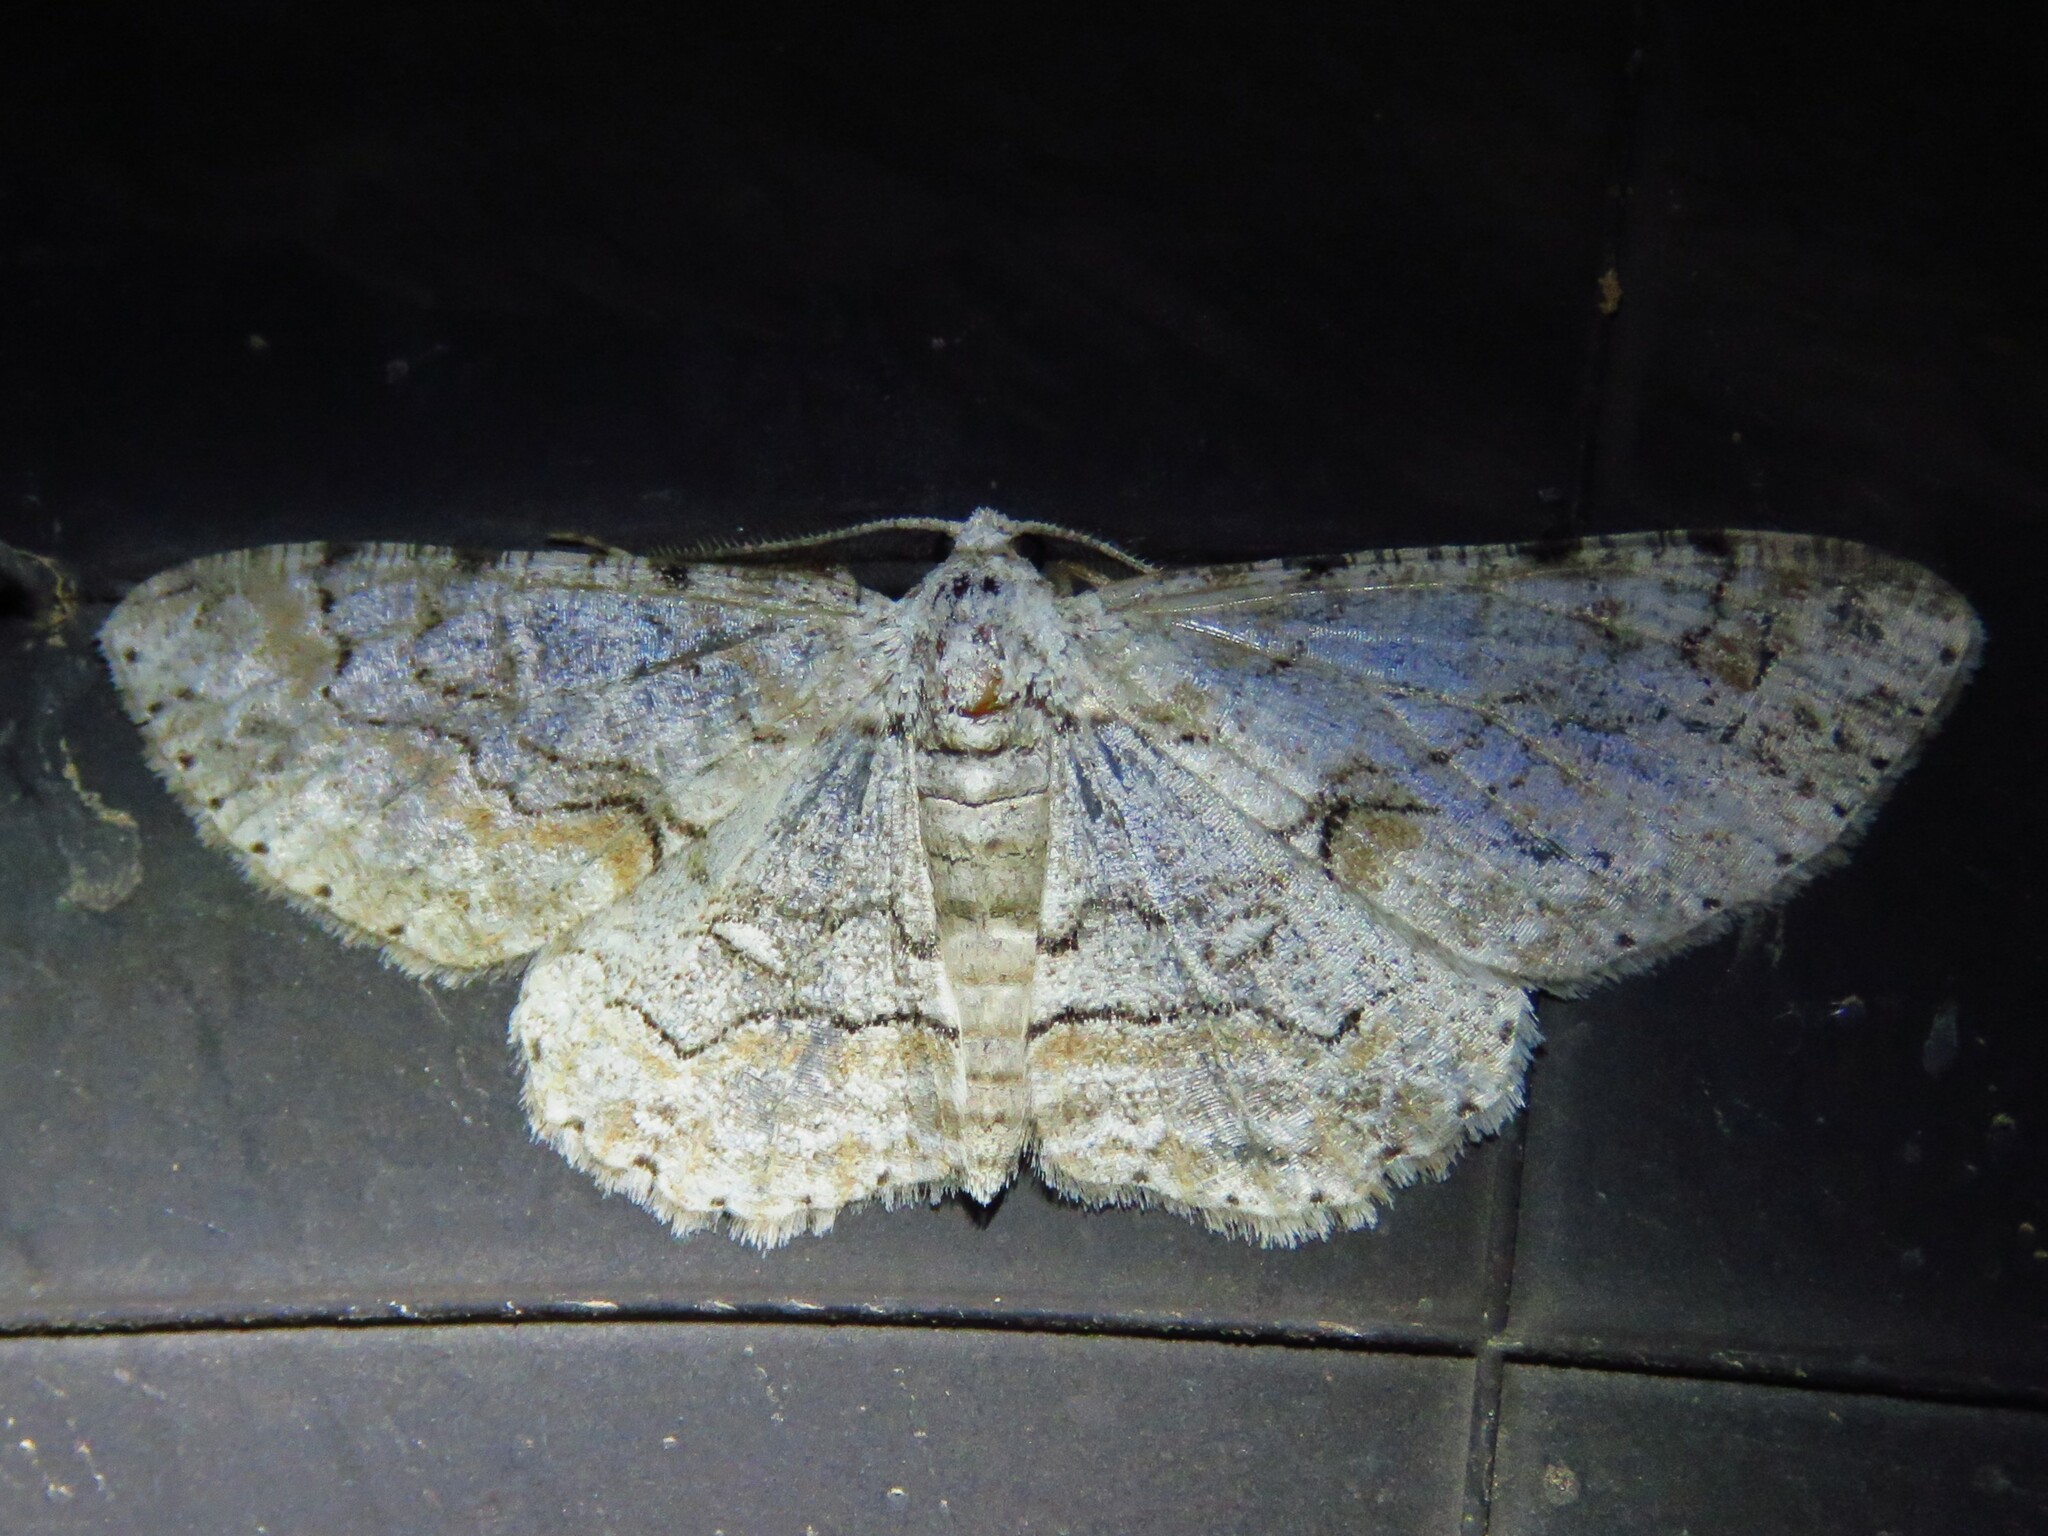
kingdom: Animalia
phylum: Arthropoda
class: Insecta
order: Lepidoptera
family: Geometridae
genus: Iridopsis
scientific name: Iridopsis defectaria
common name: Brown-shaded gray
